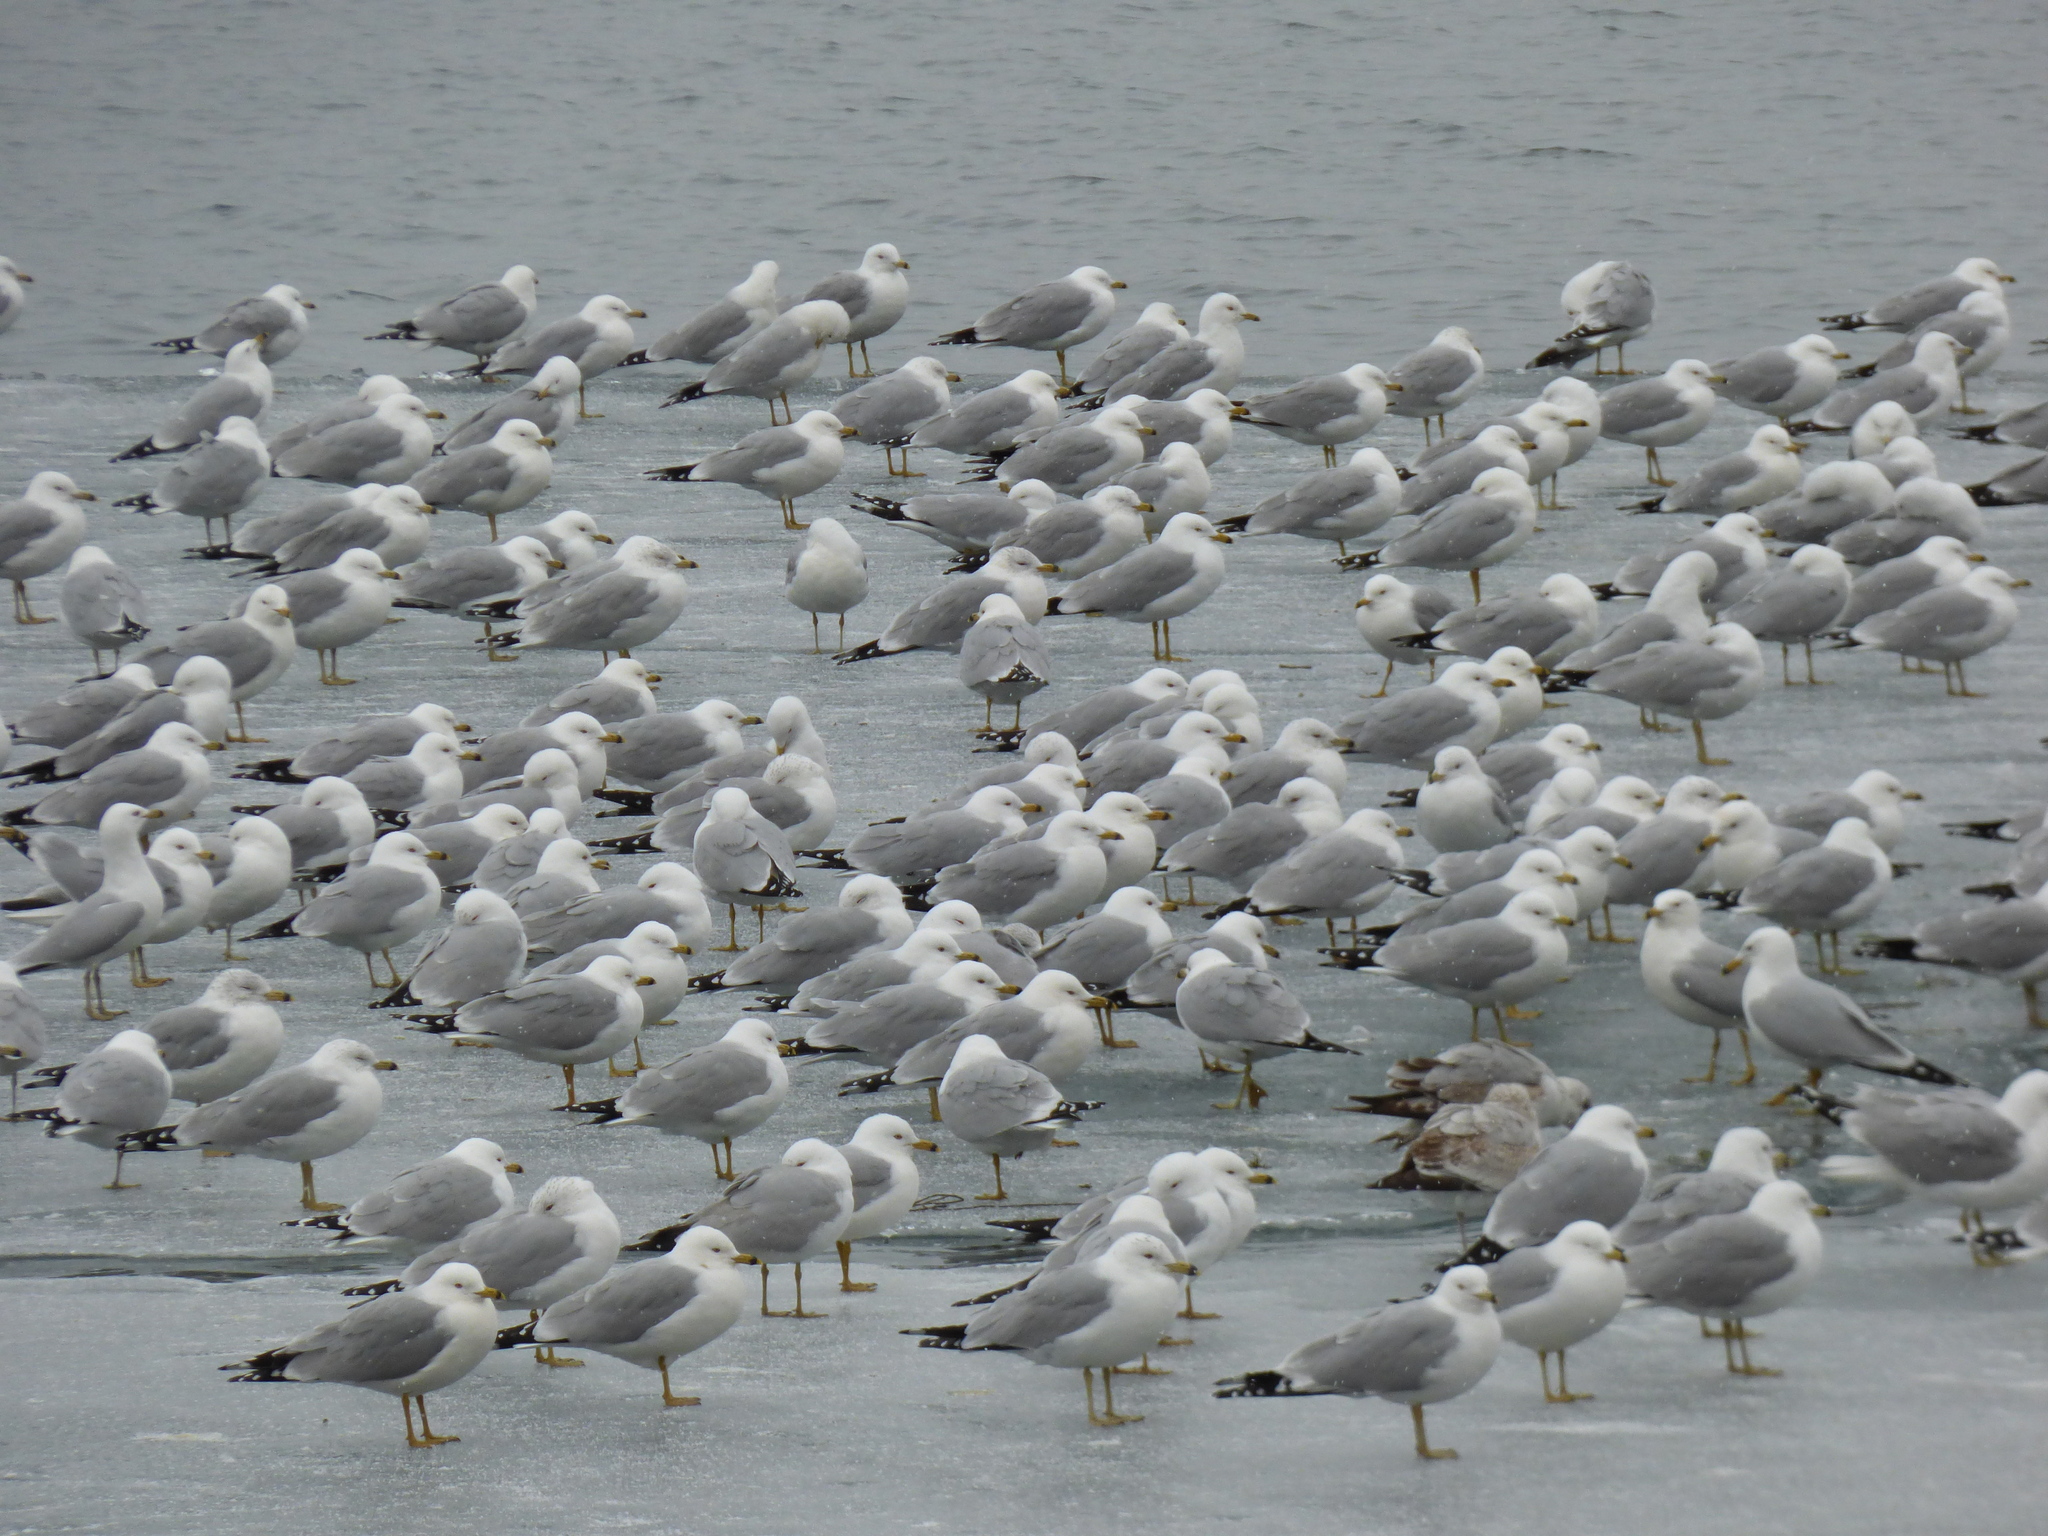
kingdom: Animalia
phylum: Chordata
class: Aves
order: Charadriiformes
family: Laridae
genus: Larus
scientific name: Larus delawarensis
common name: Ring-billed gull
